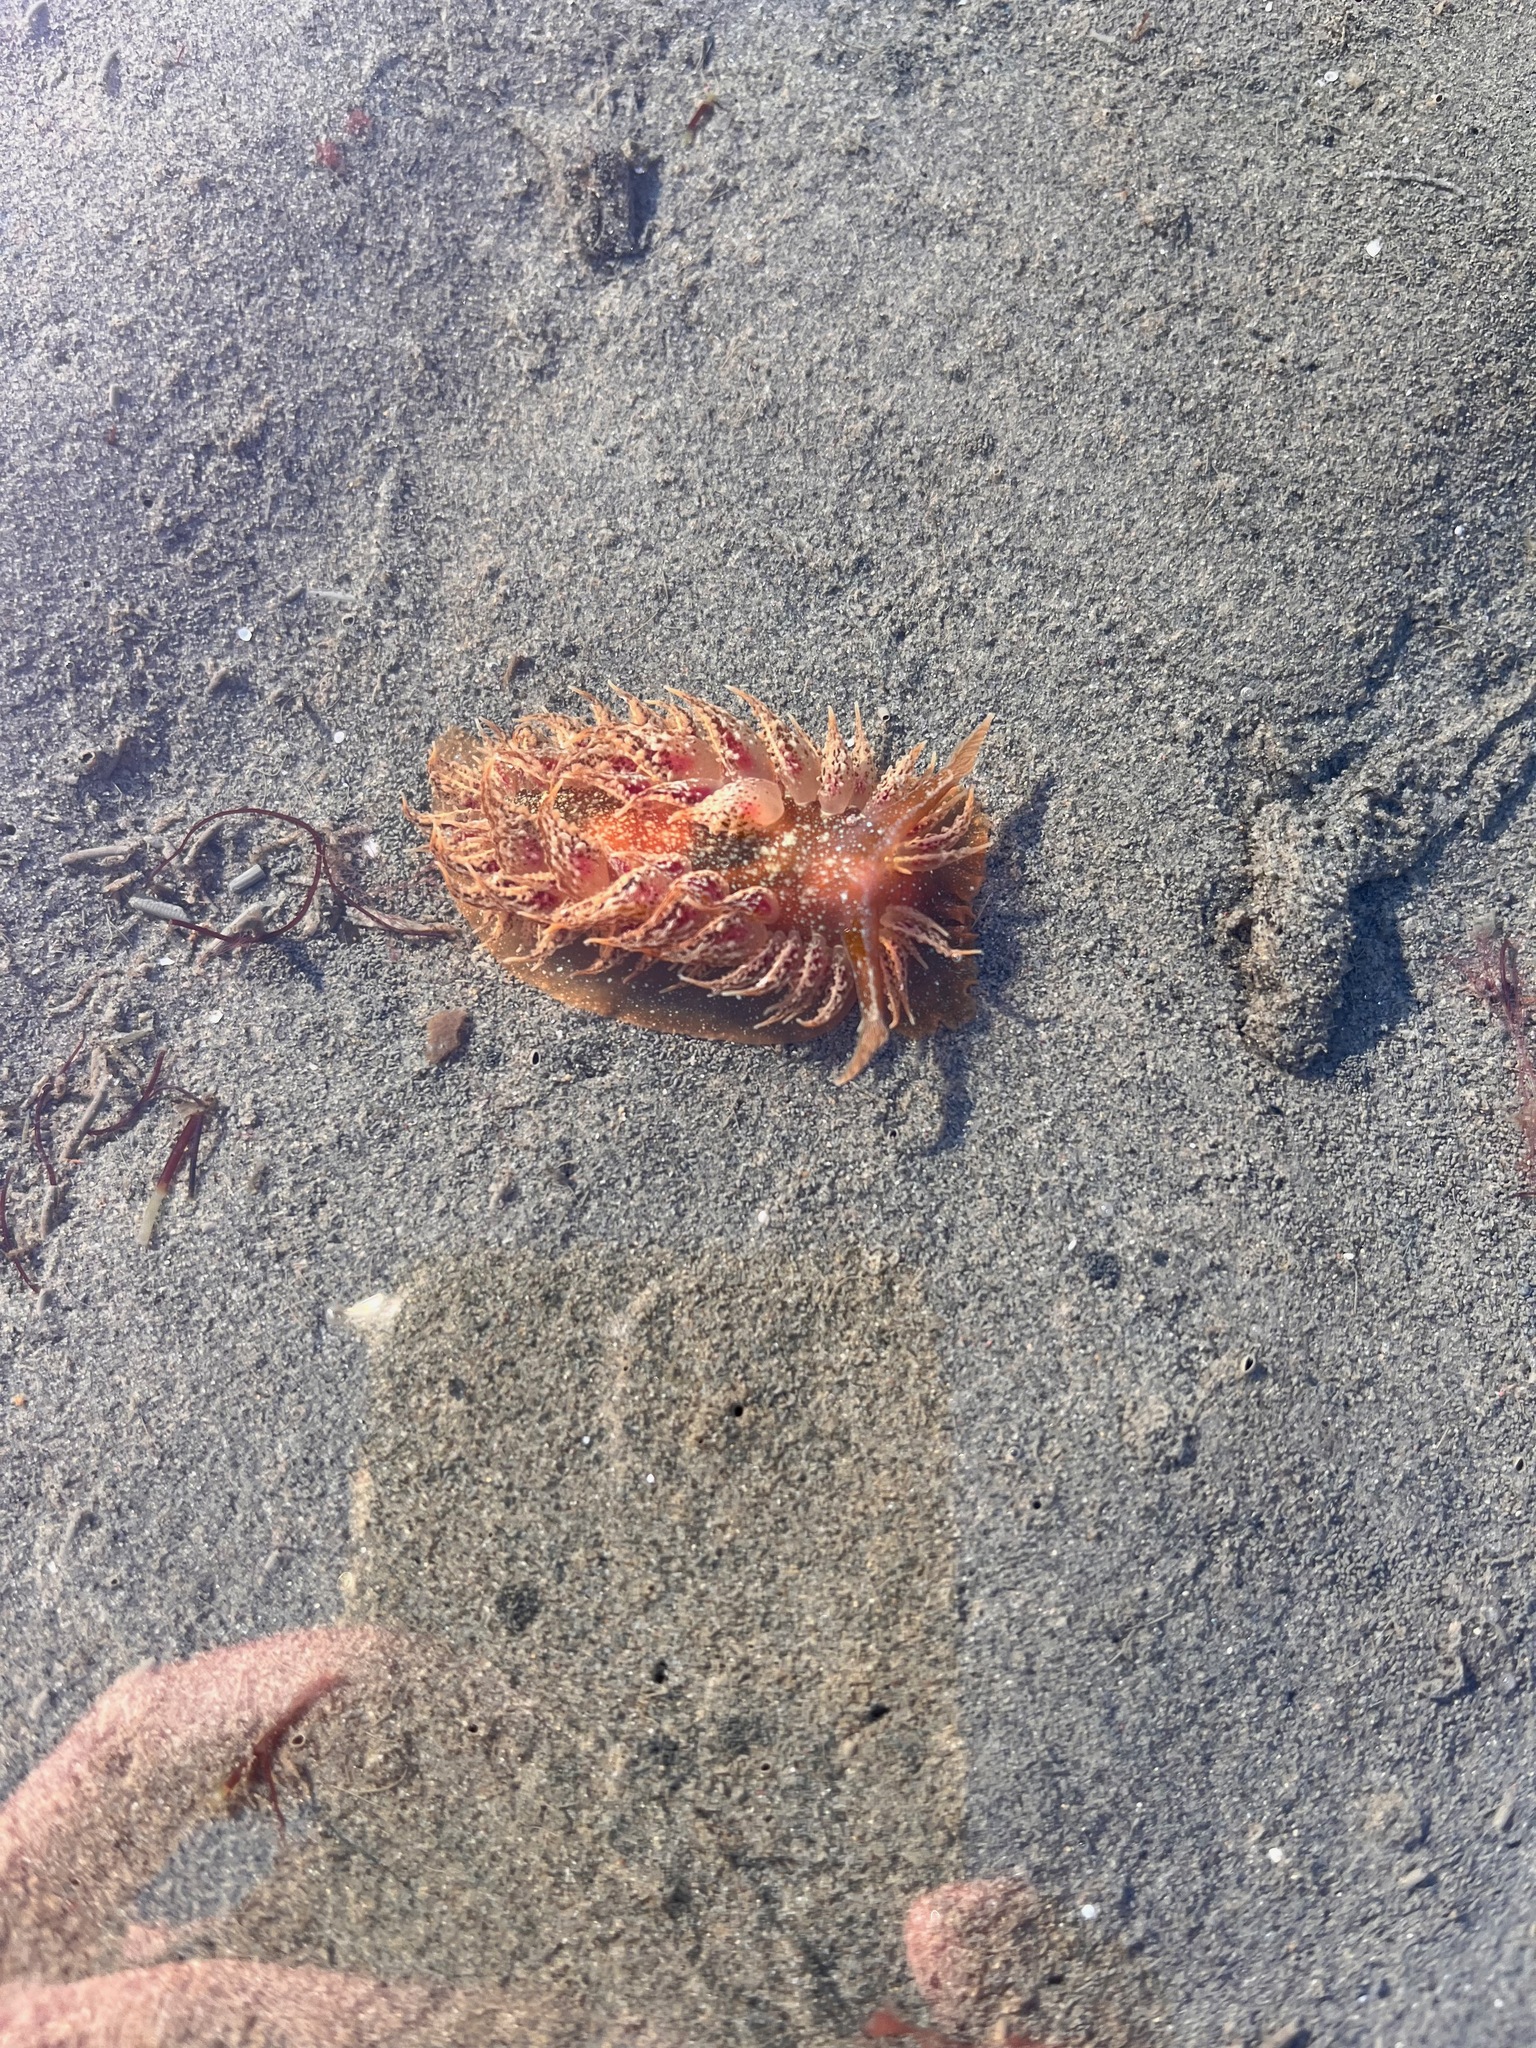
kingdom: Animalia
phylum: Mollusca
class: Gastropoda
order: Nudibranchia
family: Dironidae
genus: Dirona
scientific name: Dirona picta
